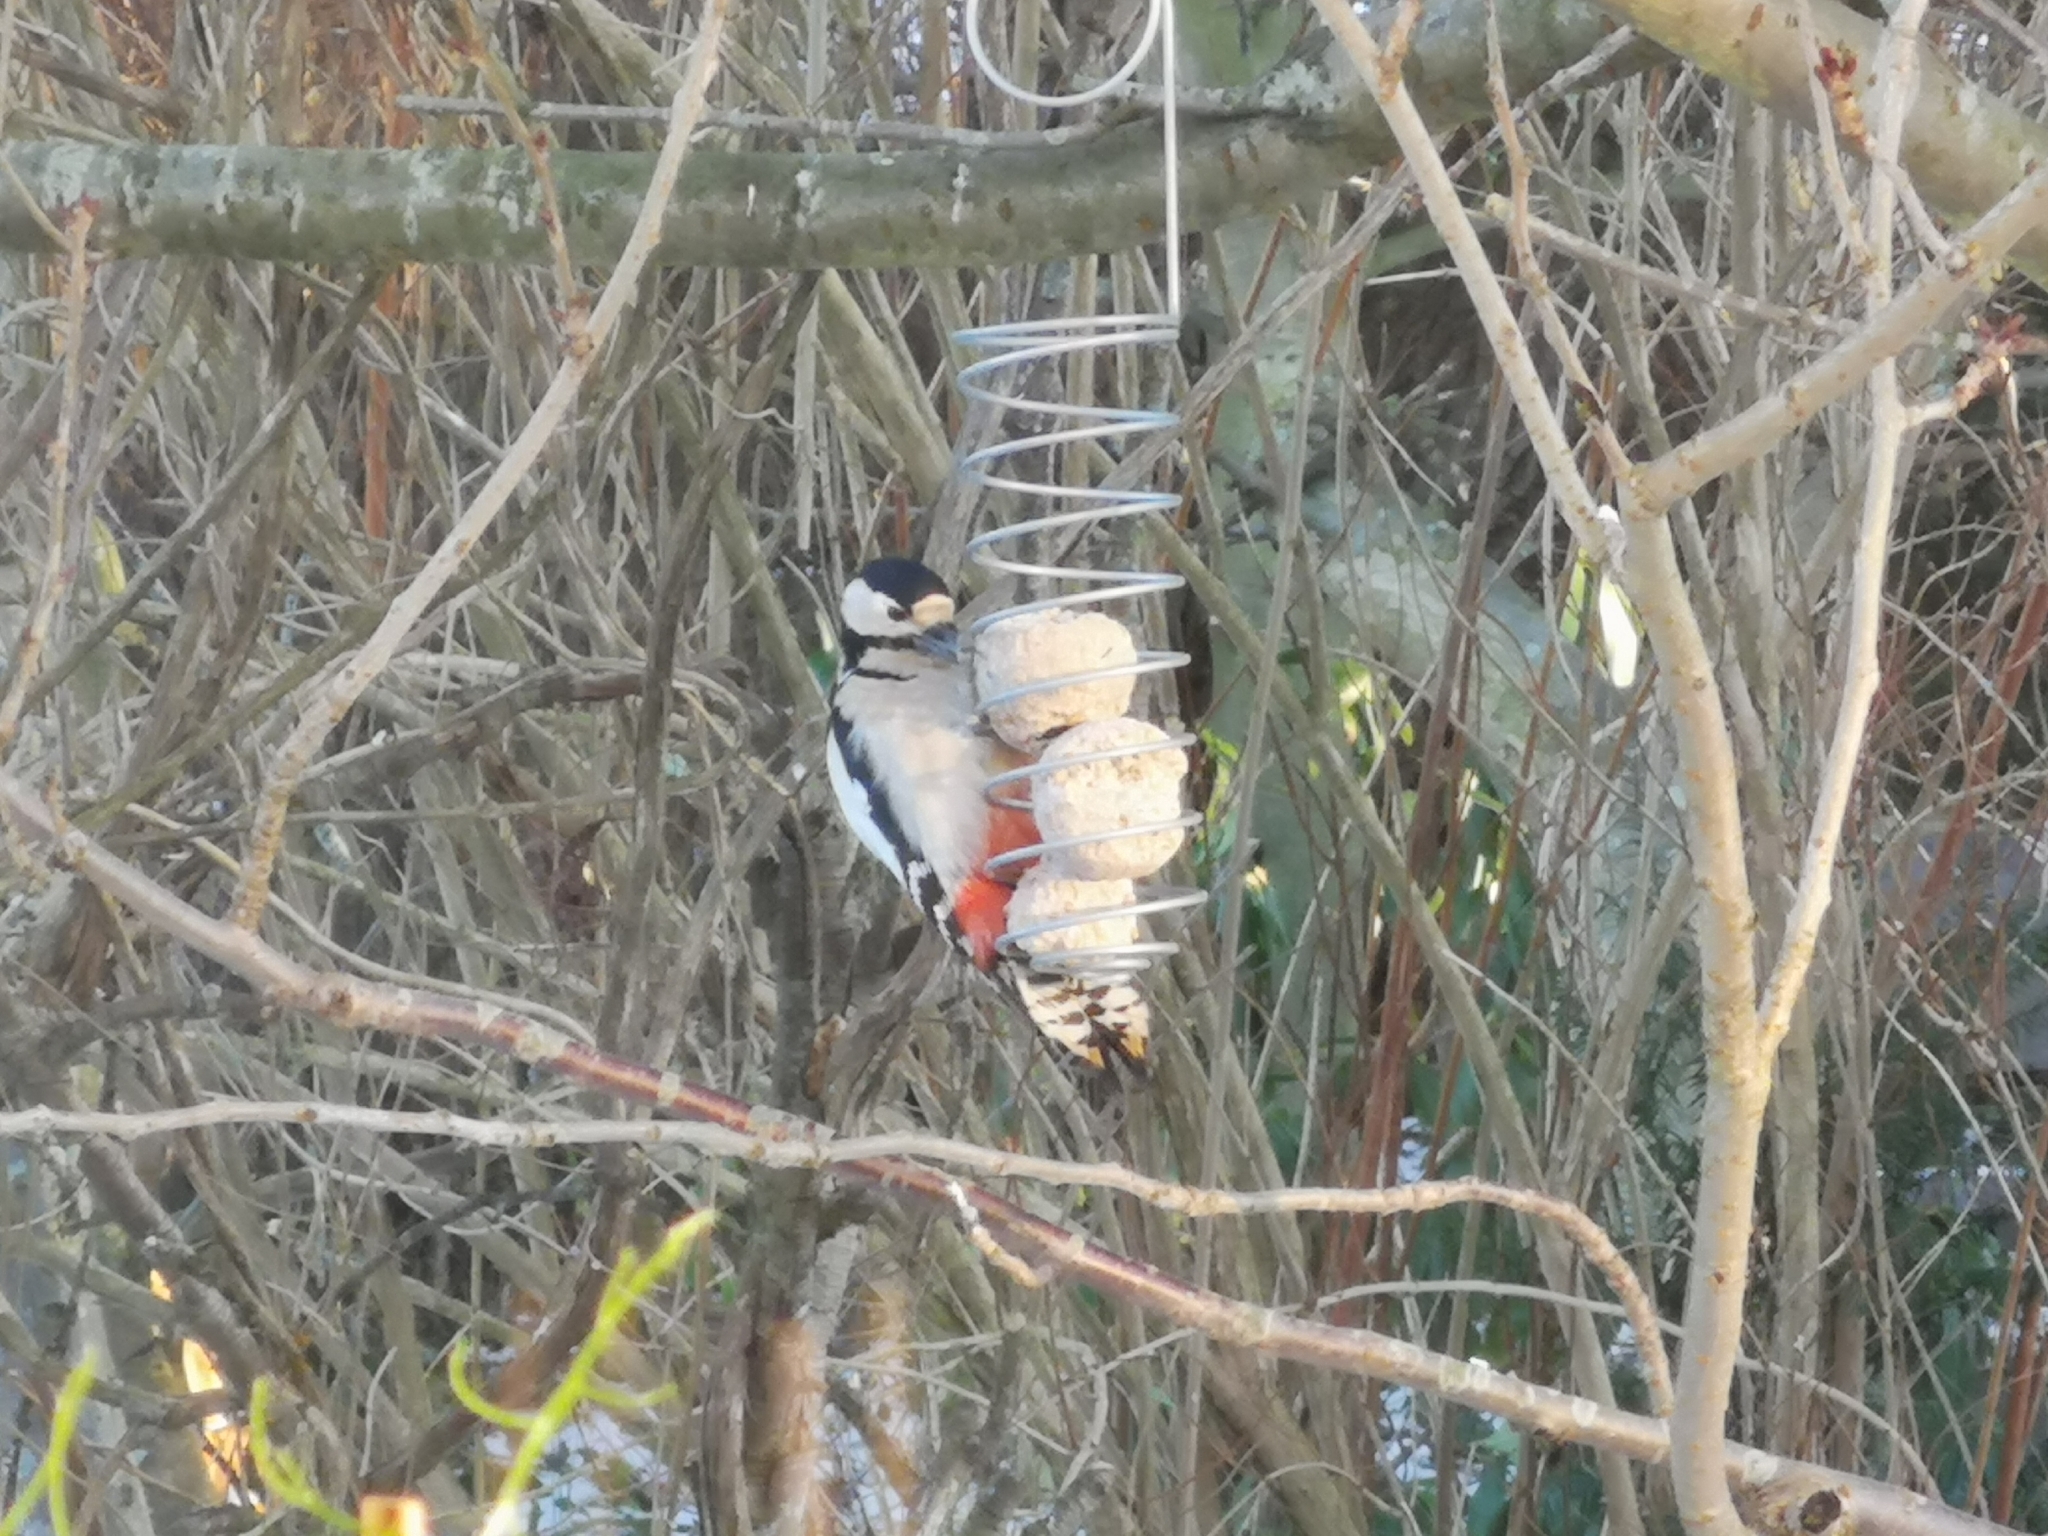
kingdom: Animalia
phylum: Chordata
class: Aves
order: Piciformes
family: Picidae
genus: Dendrocopos
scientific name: Dendrocopos major
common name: Great spotted woodpecker
